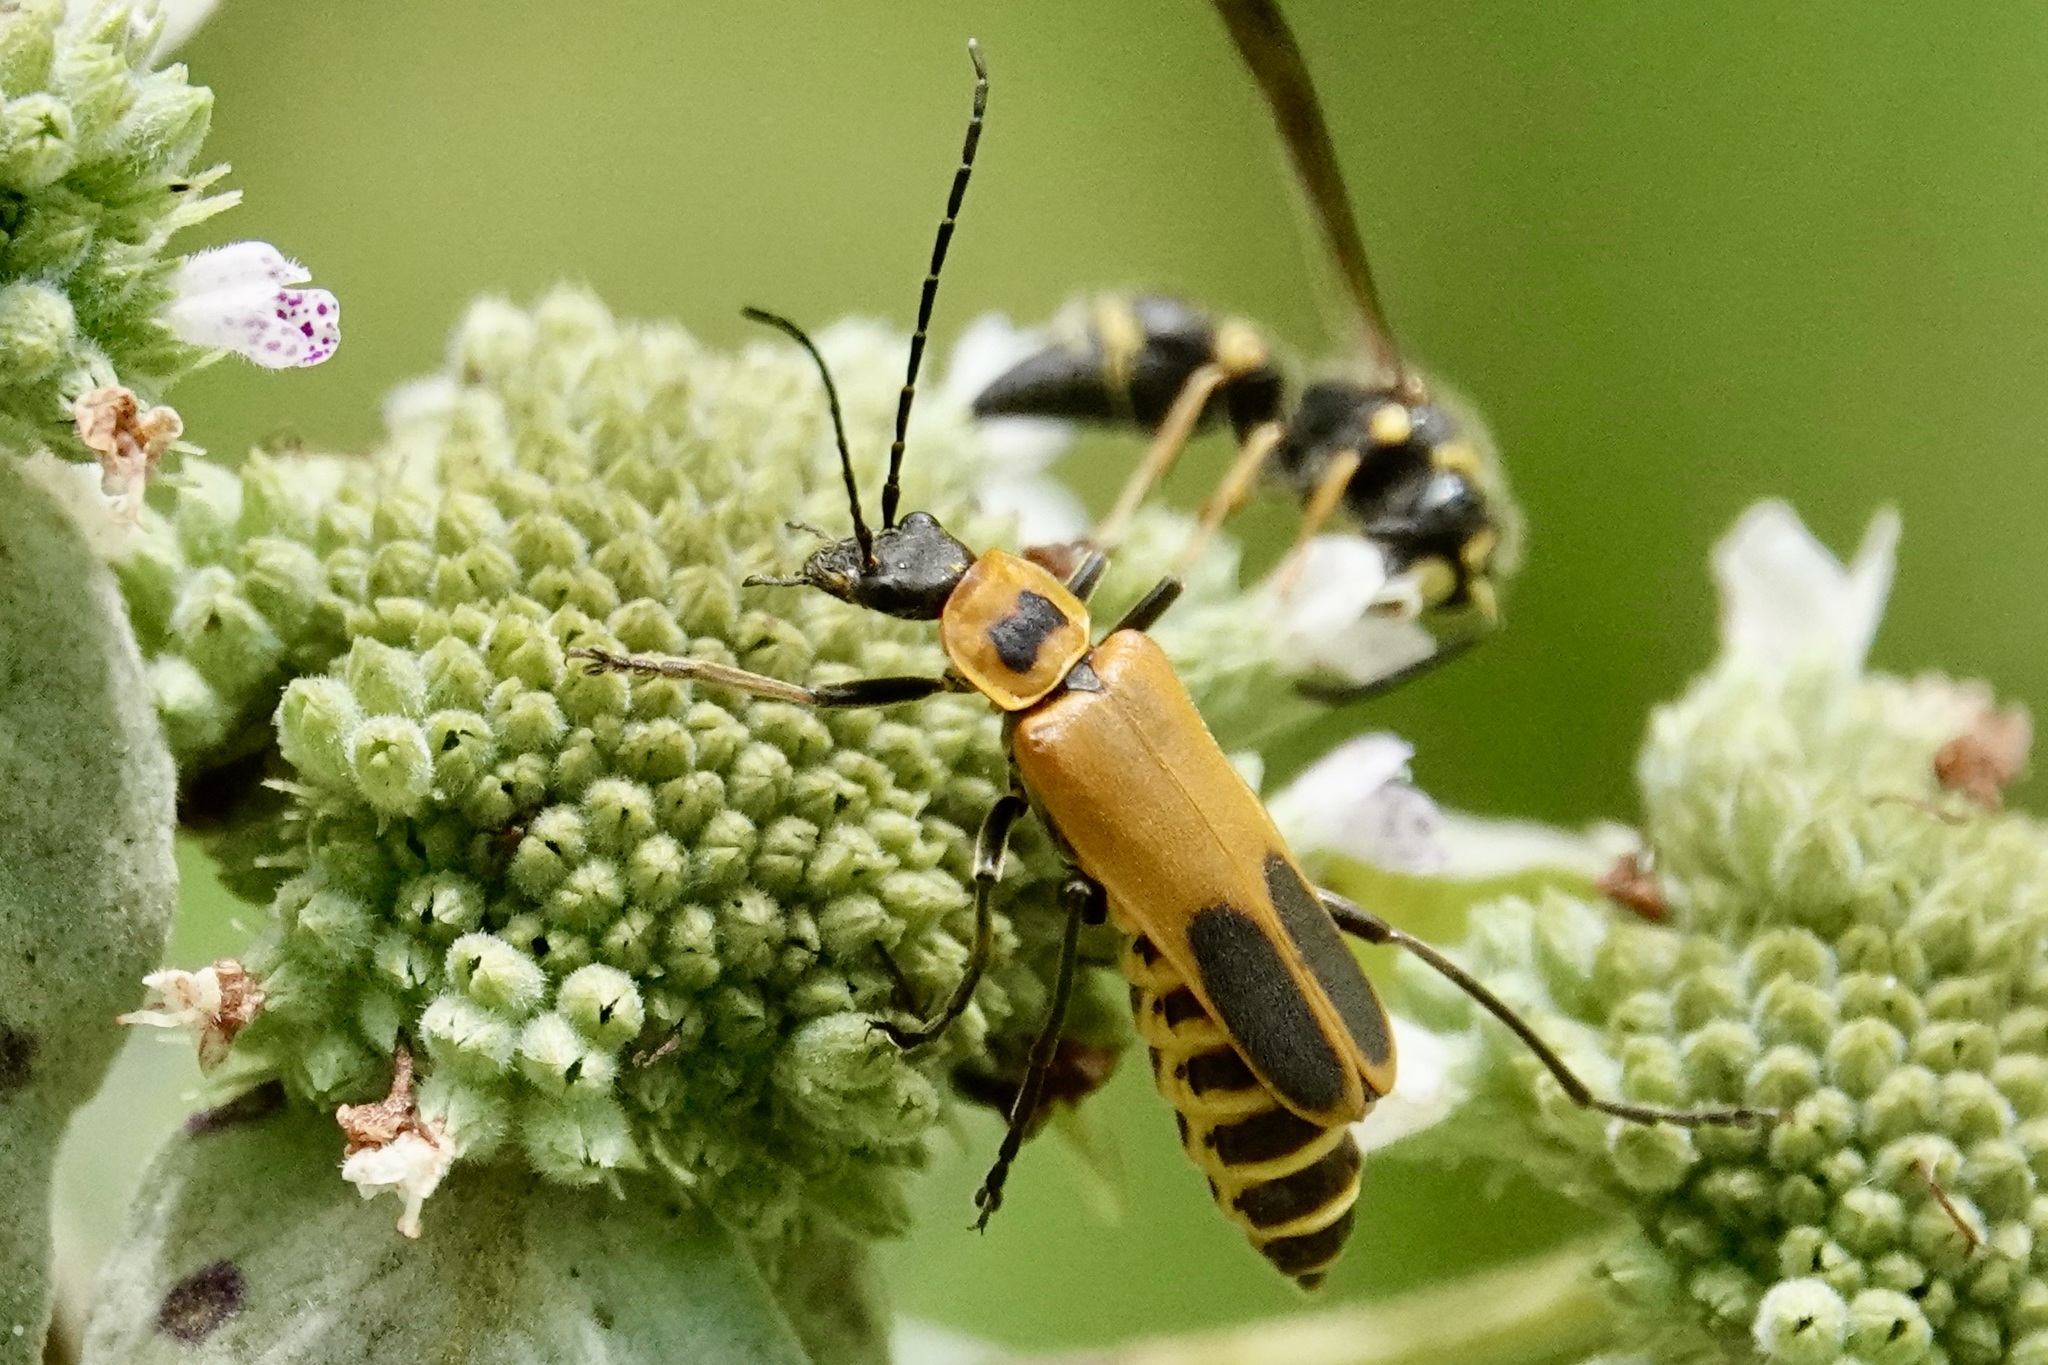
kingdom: Animalia
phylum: Arthropoda
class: Insecta
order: Coleoptera
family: Cantharidae
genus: Chauliognathus
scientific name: Chauliognathus pensylvanicus
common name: Goldenrod soldier beetle
